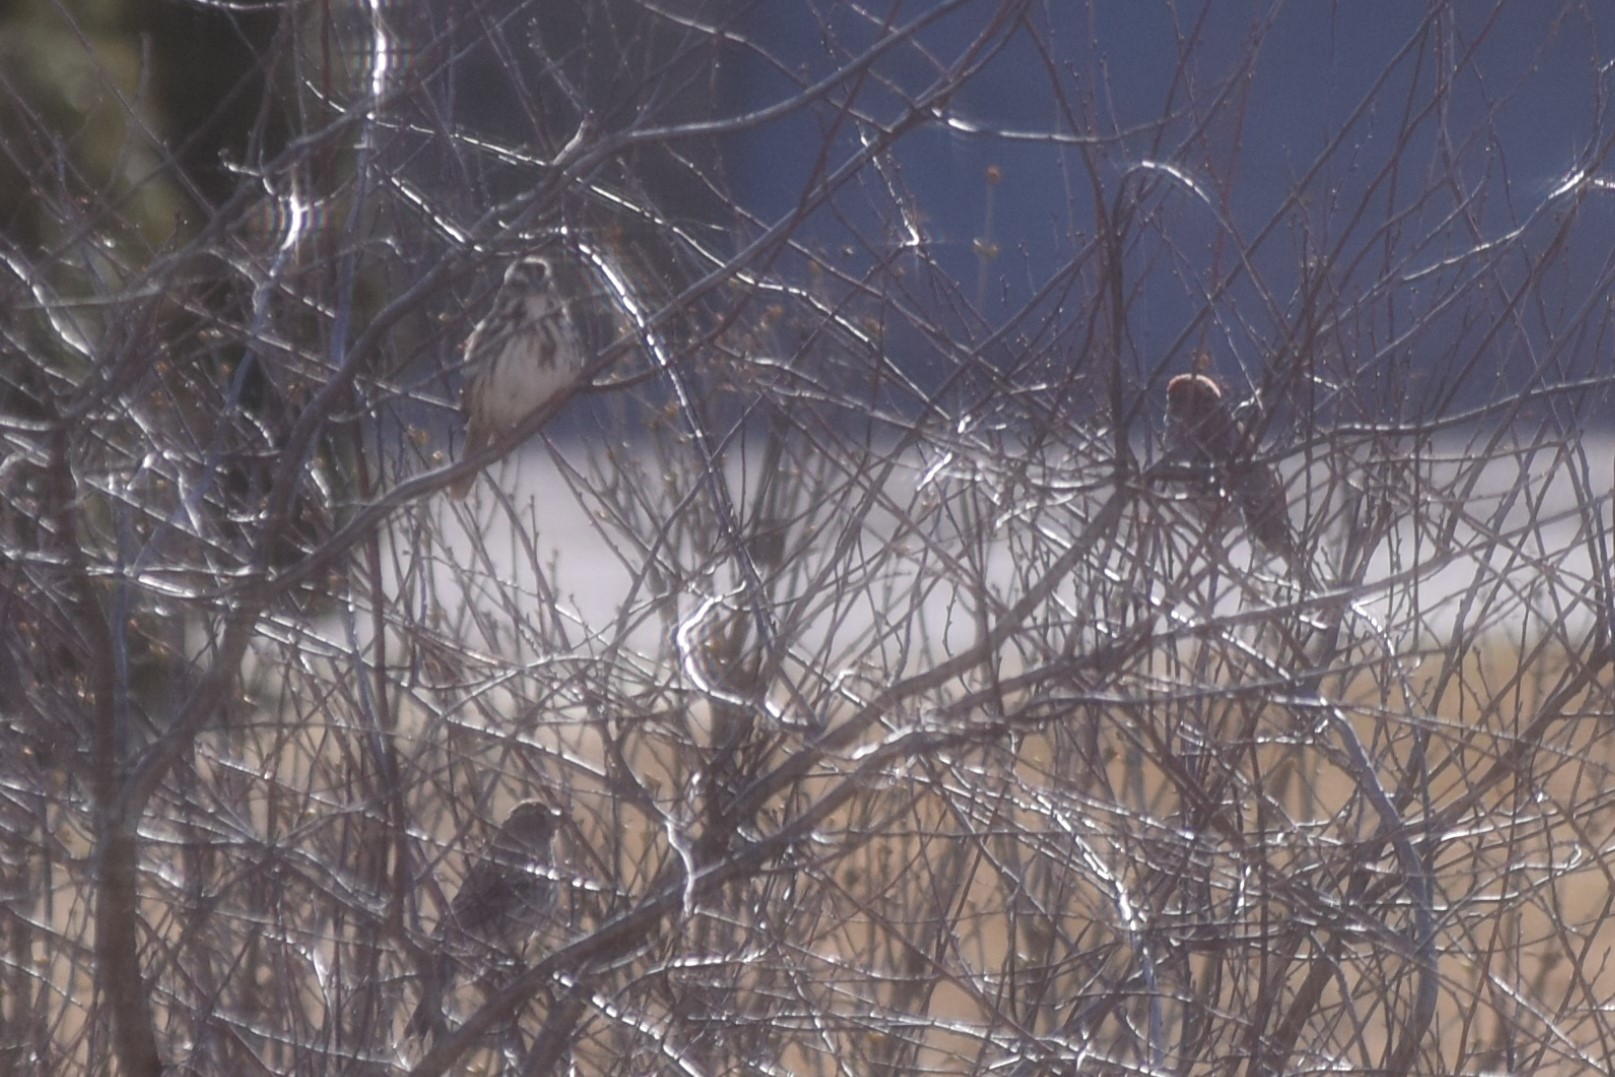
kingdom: Animalia
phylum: Chordata
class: Aves
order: Passeriformes
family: Passerellidae
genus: Melospiza
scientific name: Melospiza melodia
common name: Song sparrow
